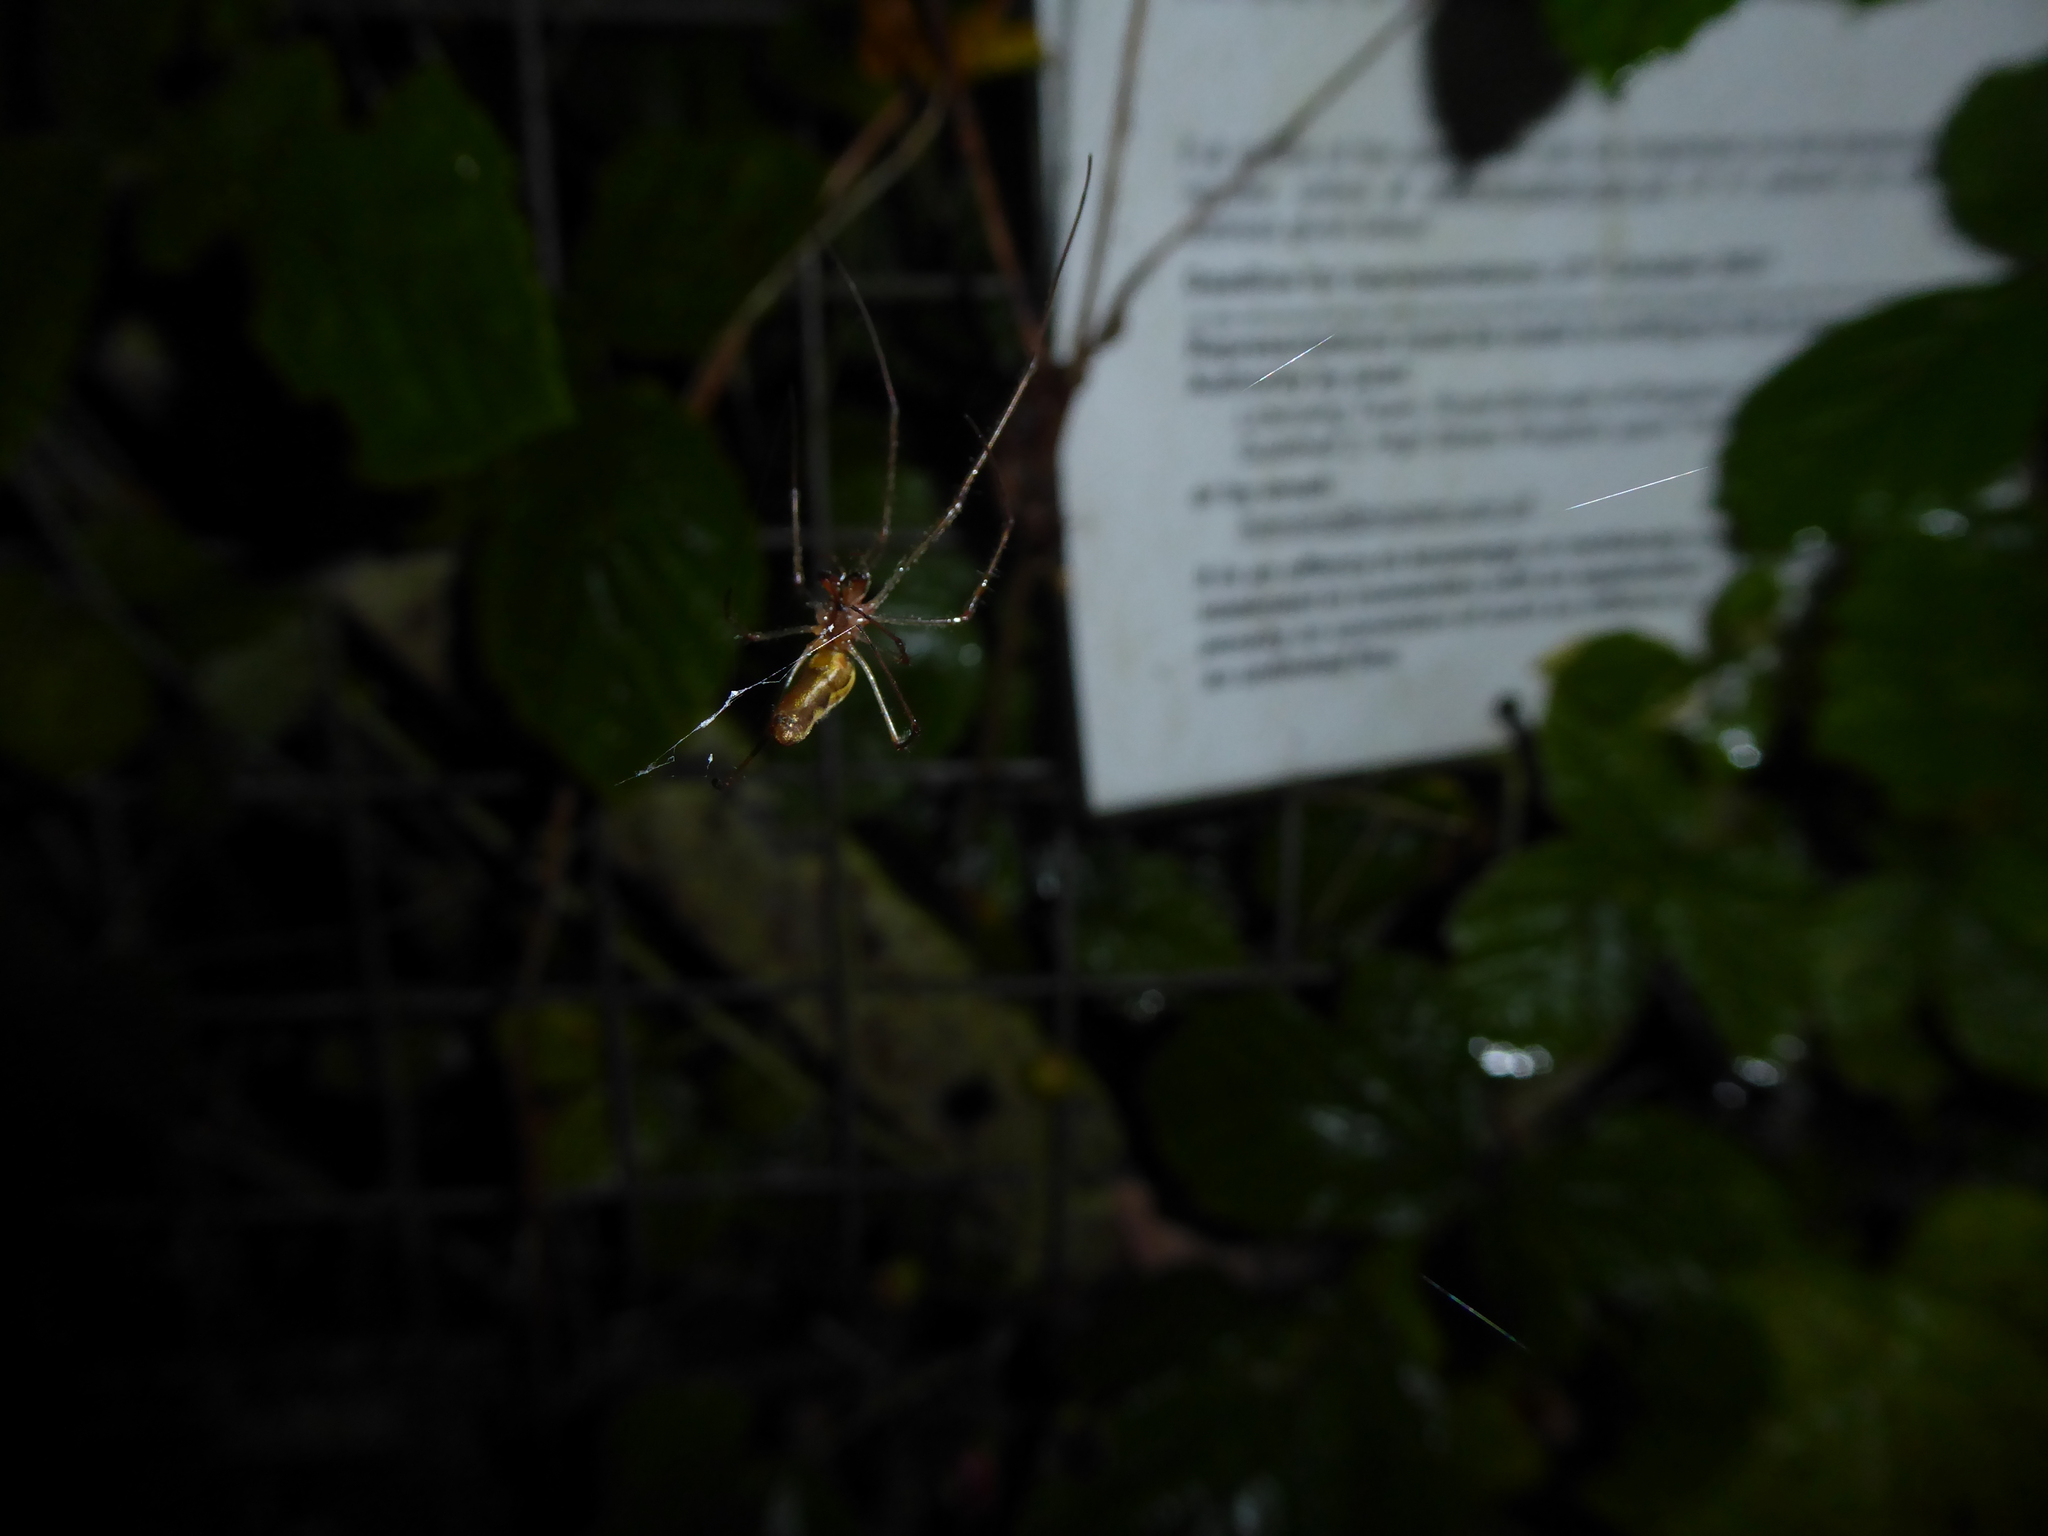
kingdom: Animalia
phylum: Arthropoda
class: Arachnida
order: Araneae
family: Tetragnathidae
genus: Tetragnatha
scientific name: Tetragnatha
